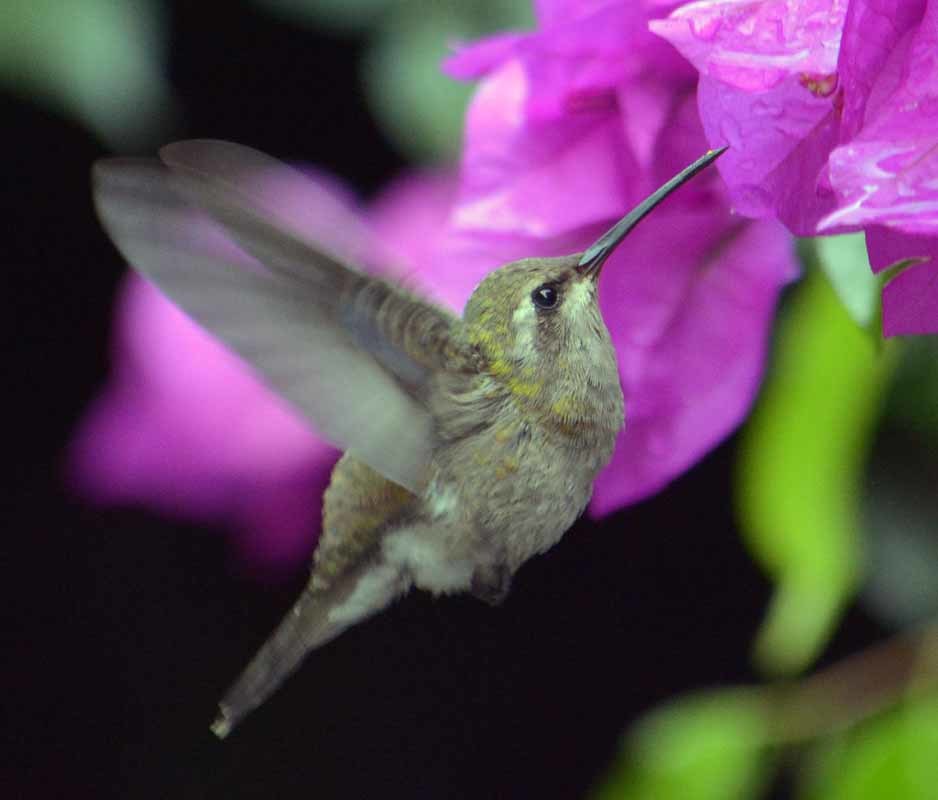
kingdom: Animalia
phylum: Chordata
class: Aves
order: Apodiformes
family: Trochilidae
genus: Cynanthus
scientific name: Cynanthus latirostris
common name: Broad-billed hummingbird
